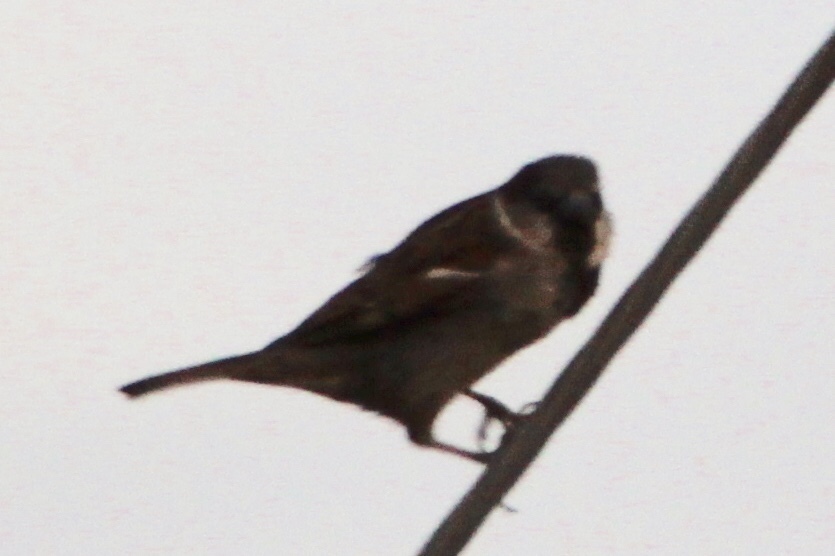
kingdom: Animalia
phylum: Chordata
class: Aves
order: Passeriformes
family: Passeridae
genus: Passer
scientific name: Passer domesticus
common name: House sparrow
